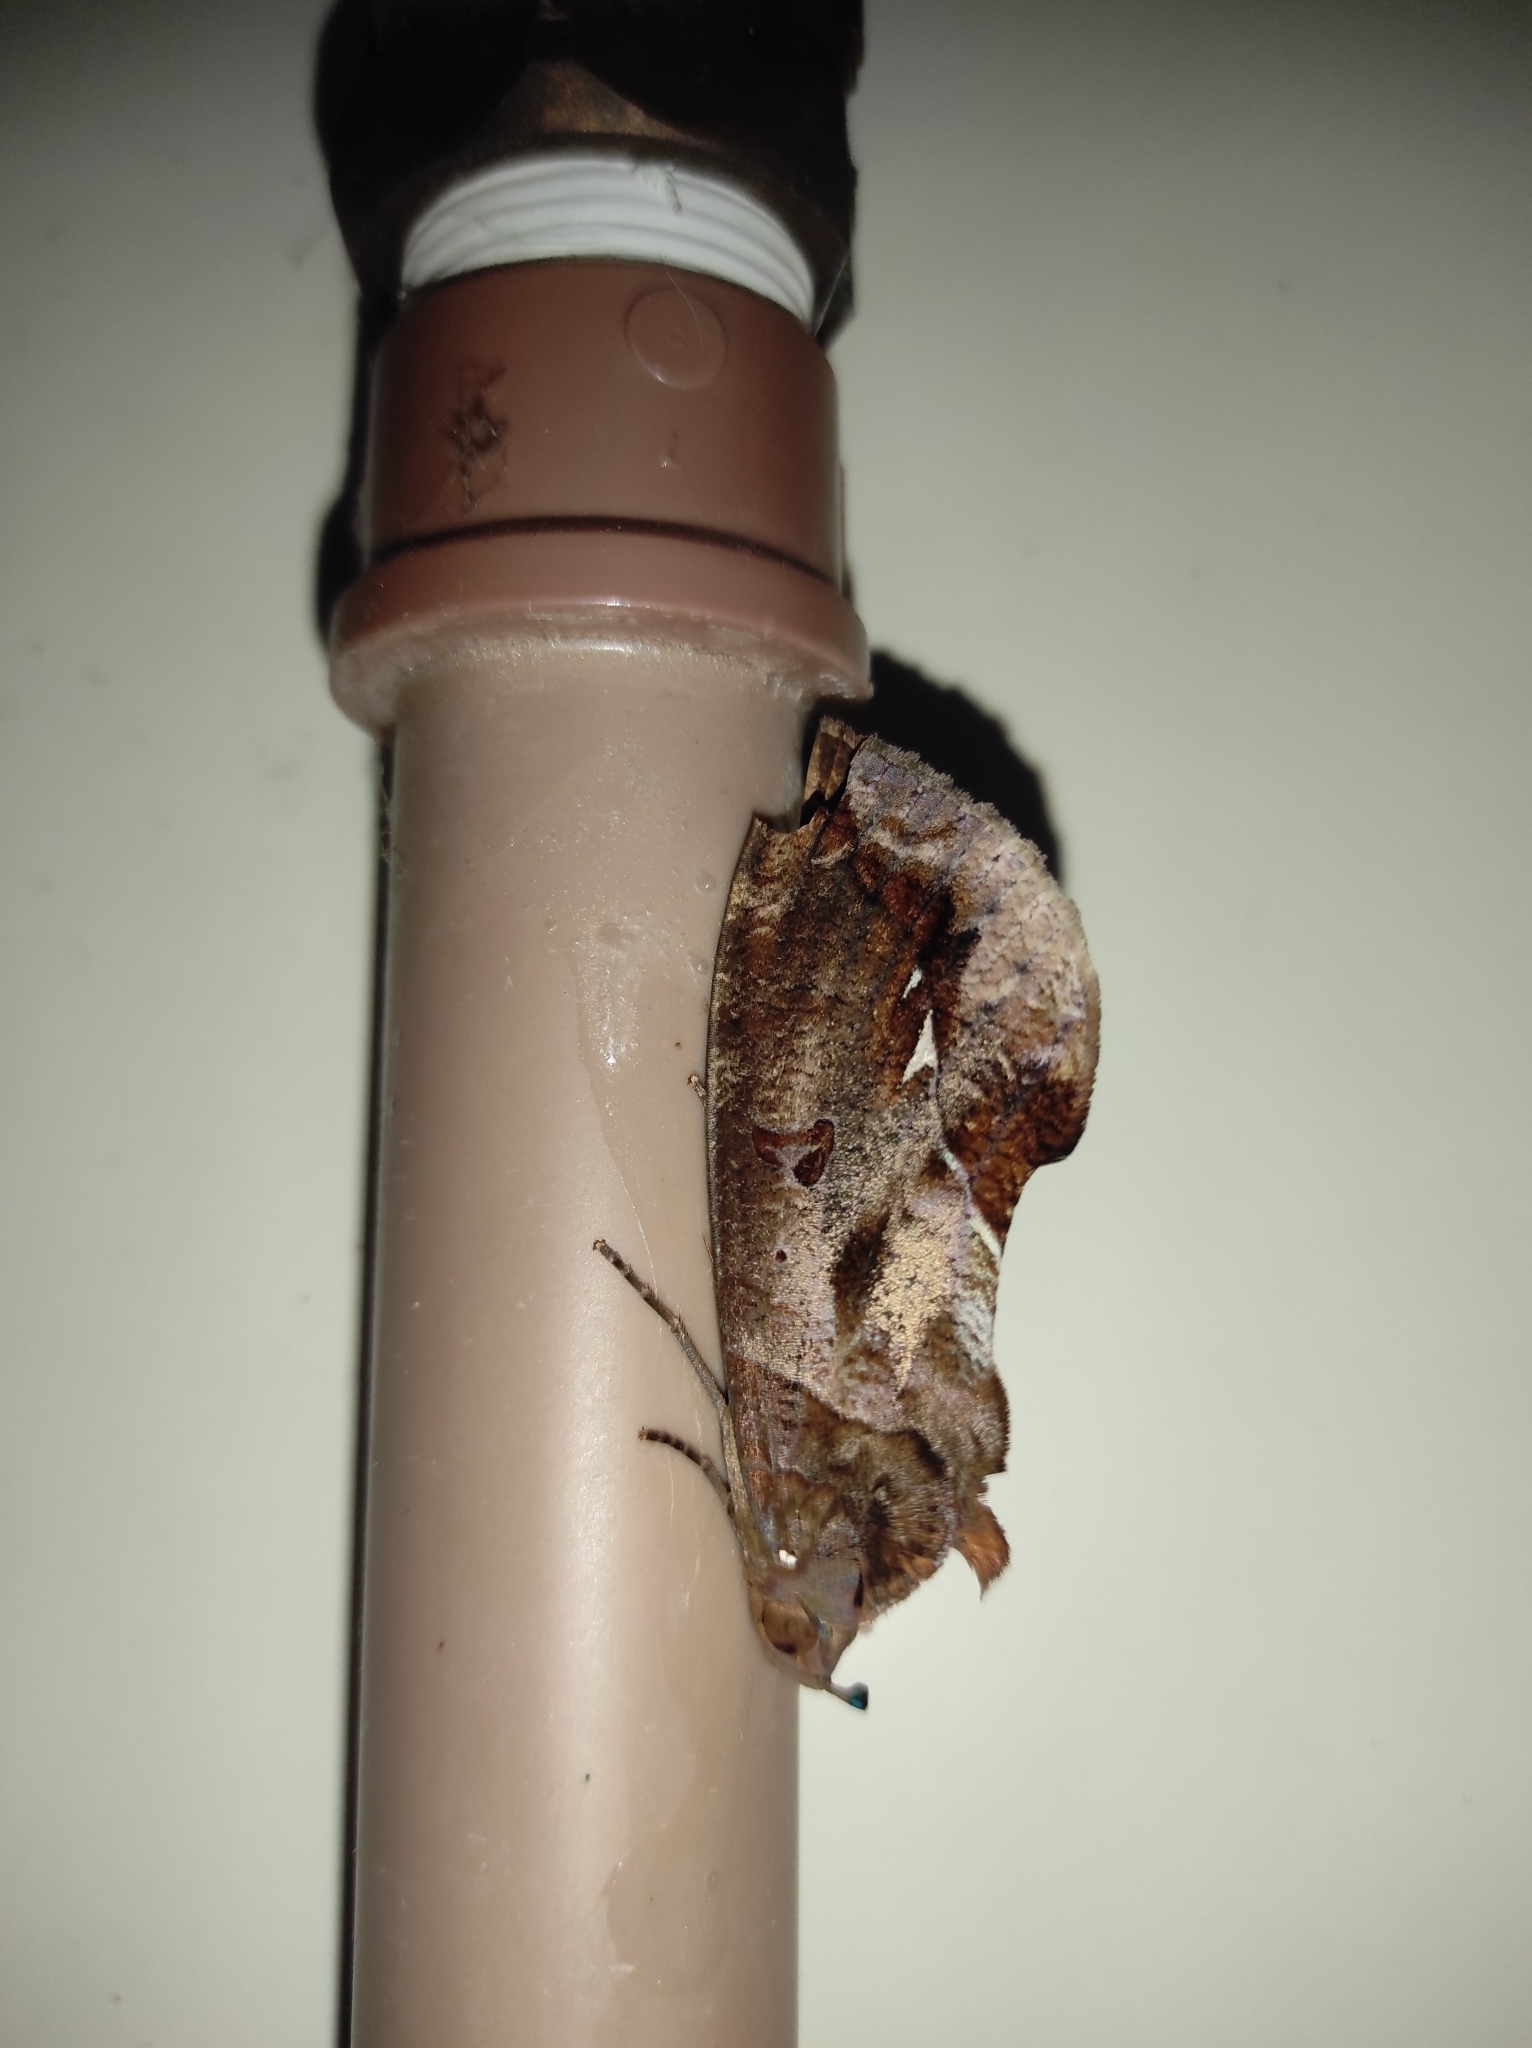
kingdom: Animalia
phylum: Arthropoda
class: Insecta
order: Lepidoptera
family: Erebidae
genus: Eudocima
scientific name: Eudocima procus
